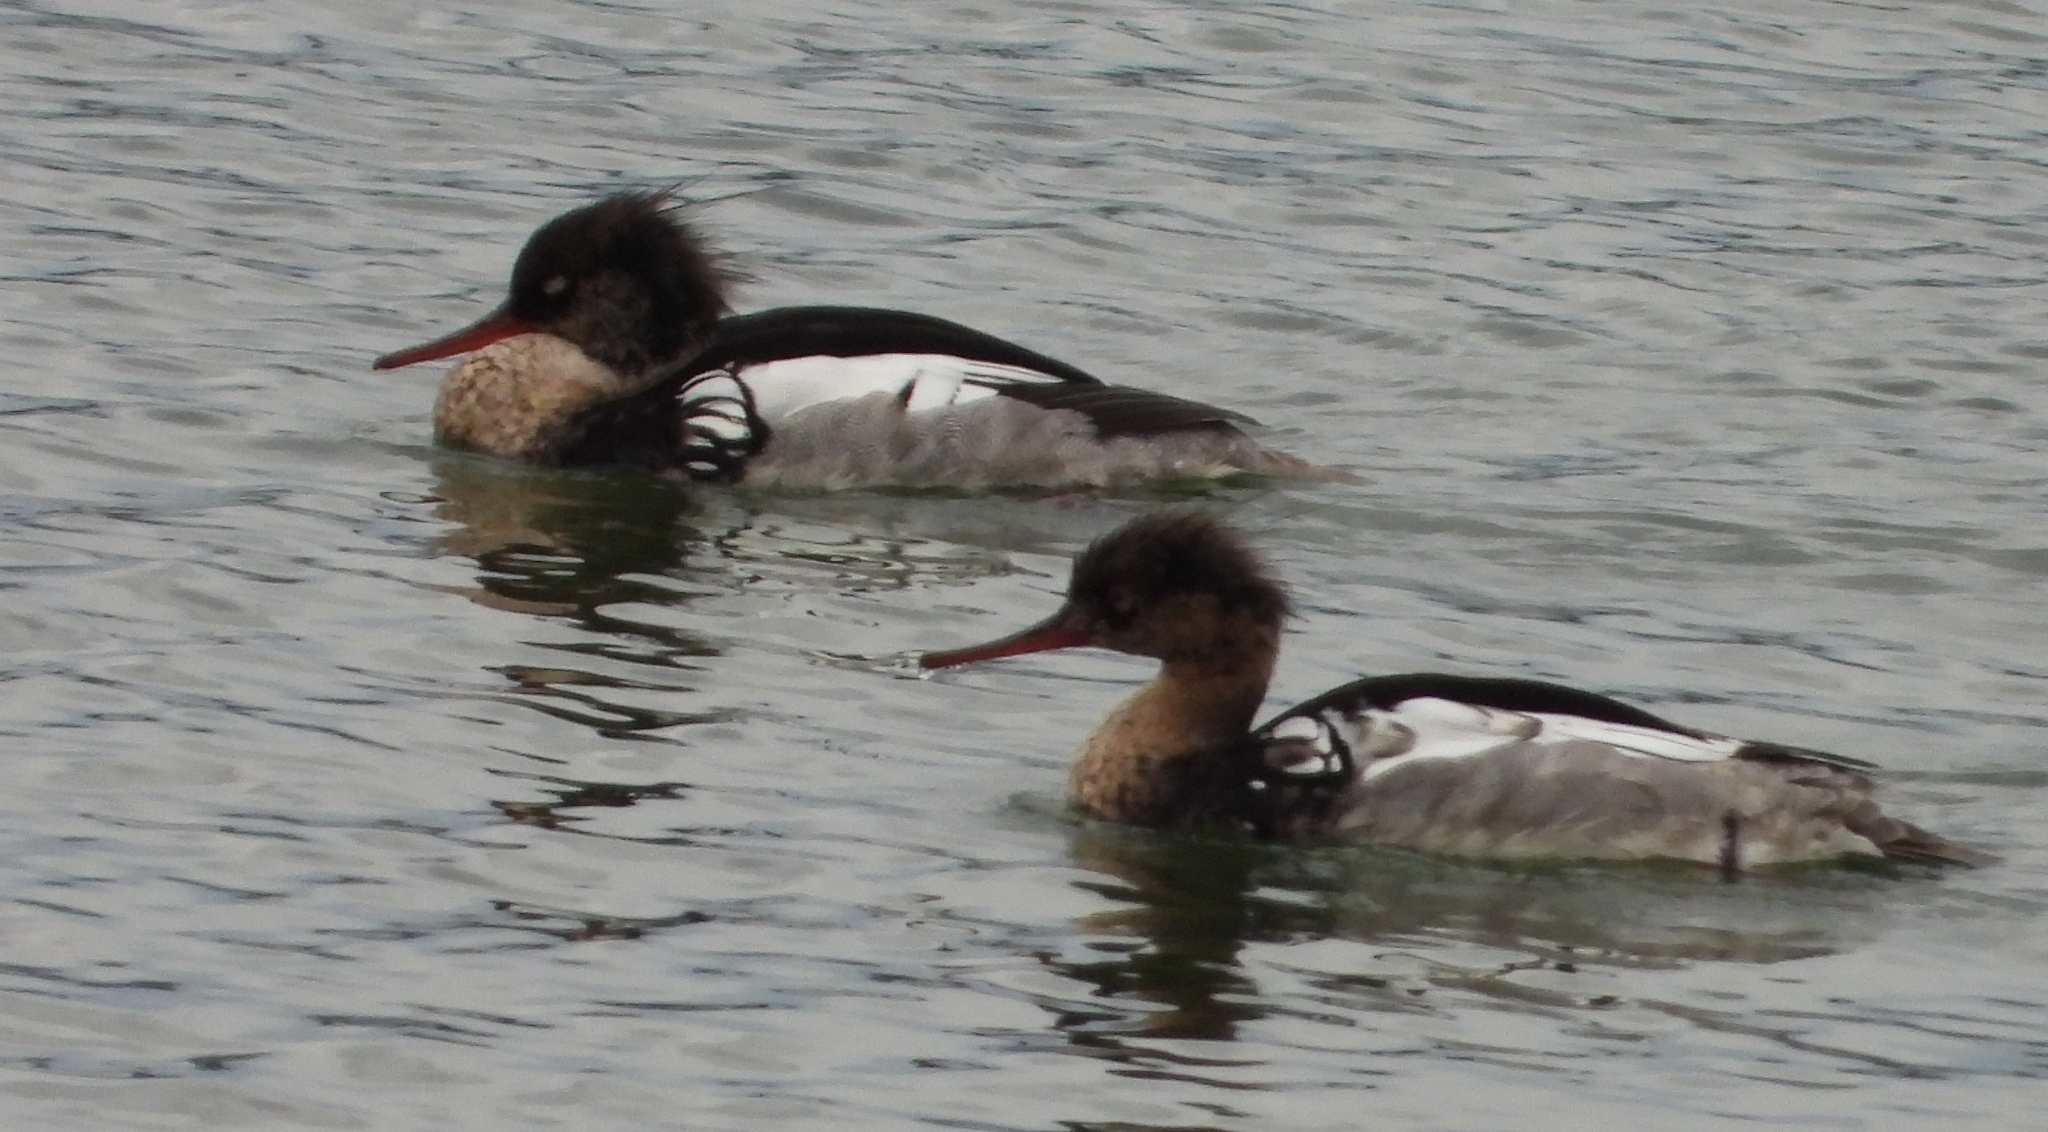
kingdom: Animalia
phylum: Chordata
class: Aves
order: Anseriformes
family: Anatidae
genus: Mergus
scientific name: Mergus serrator
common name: Red-breasted merganser
